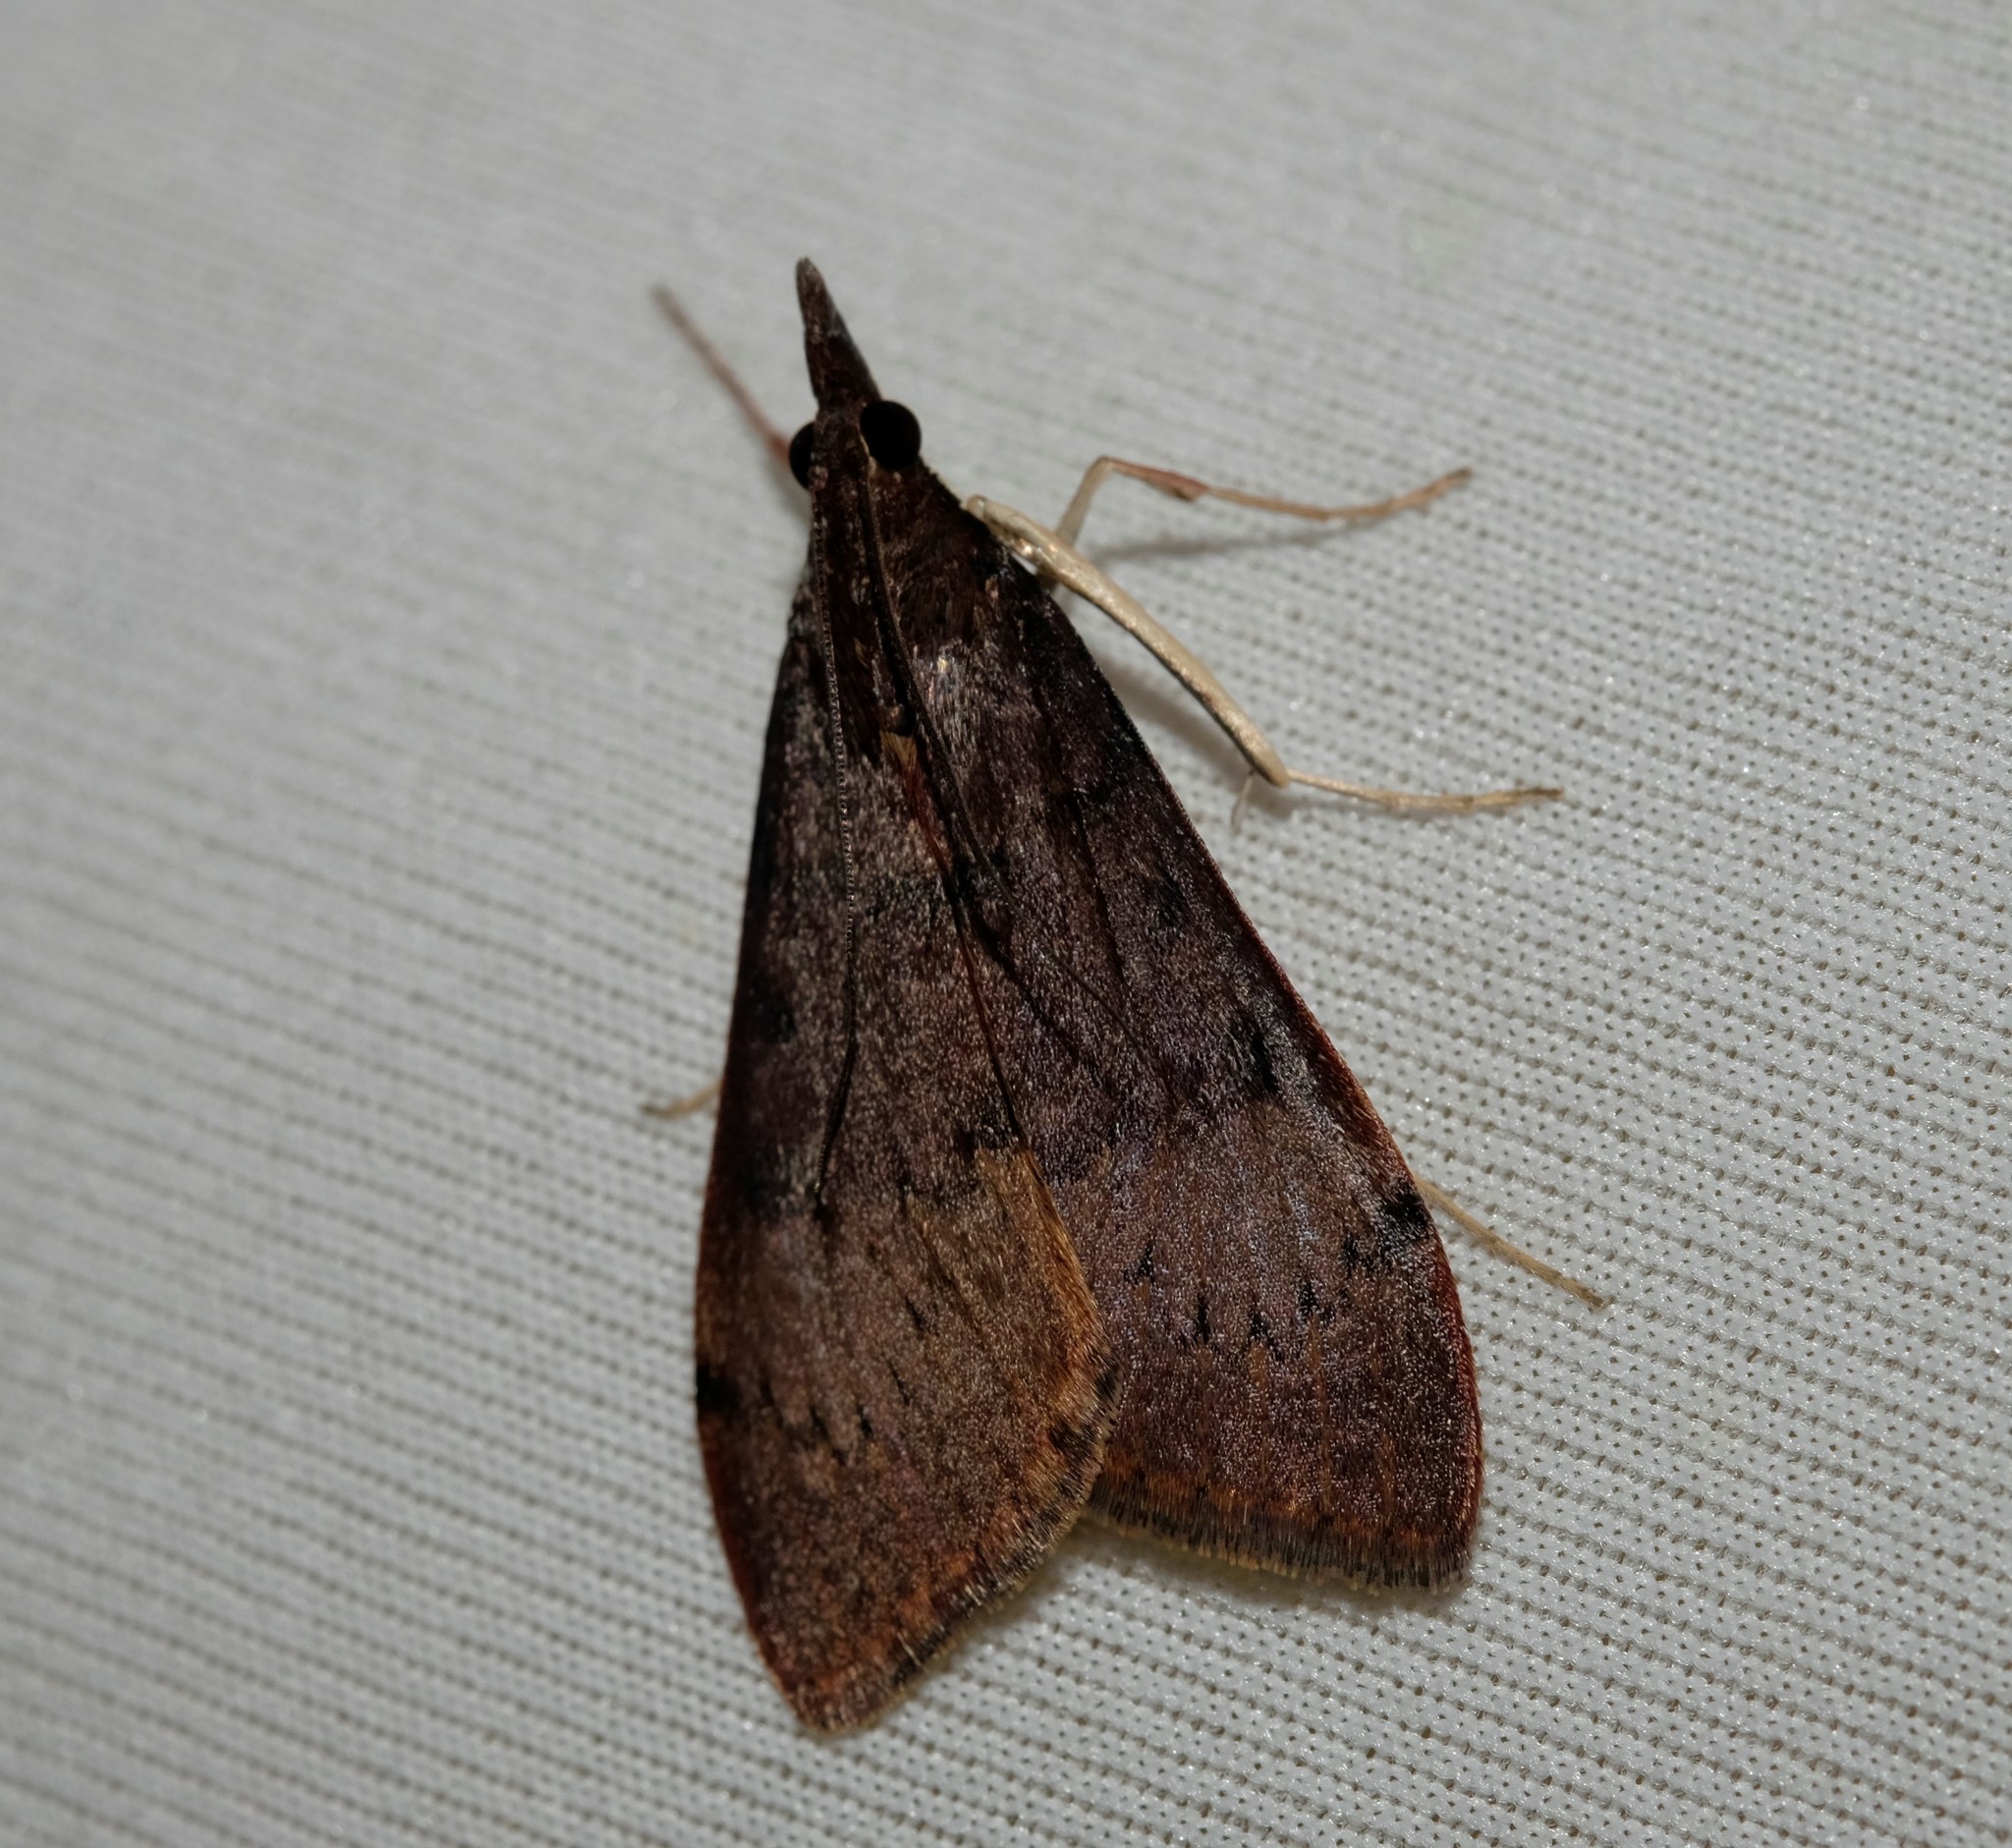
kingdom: Animalia
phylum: Arthropoda
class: Insecta
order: Lepidoptera
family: Crambidae
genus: Uresiphita
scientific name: Uresiphita ornithopteralis
